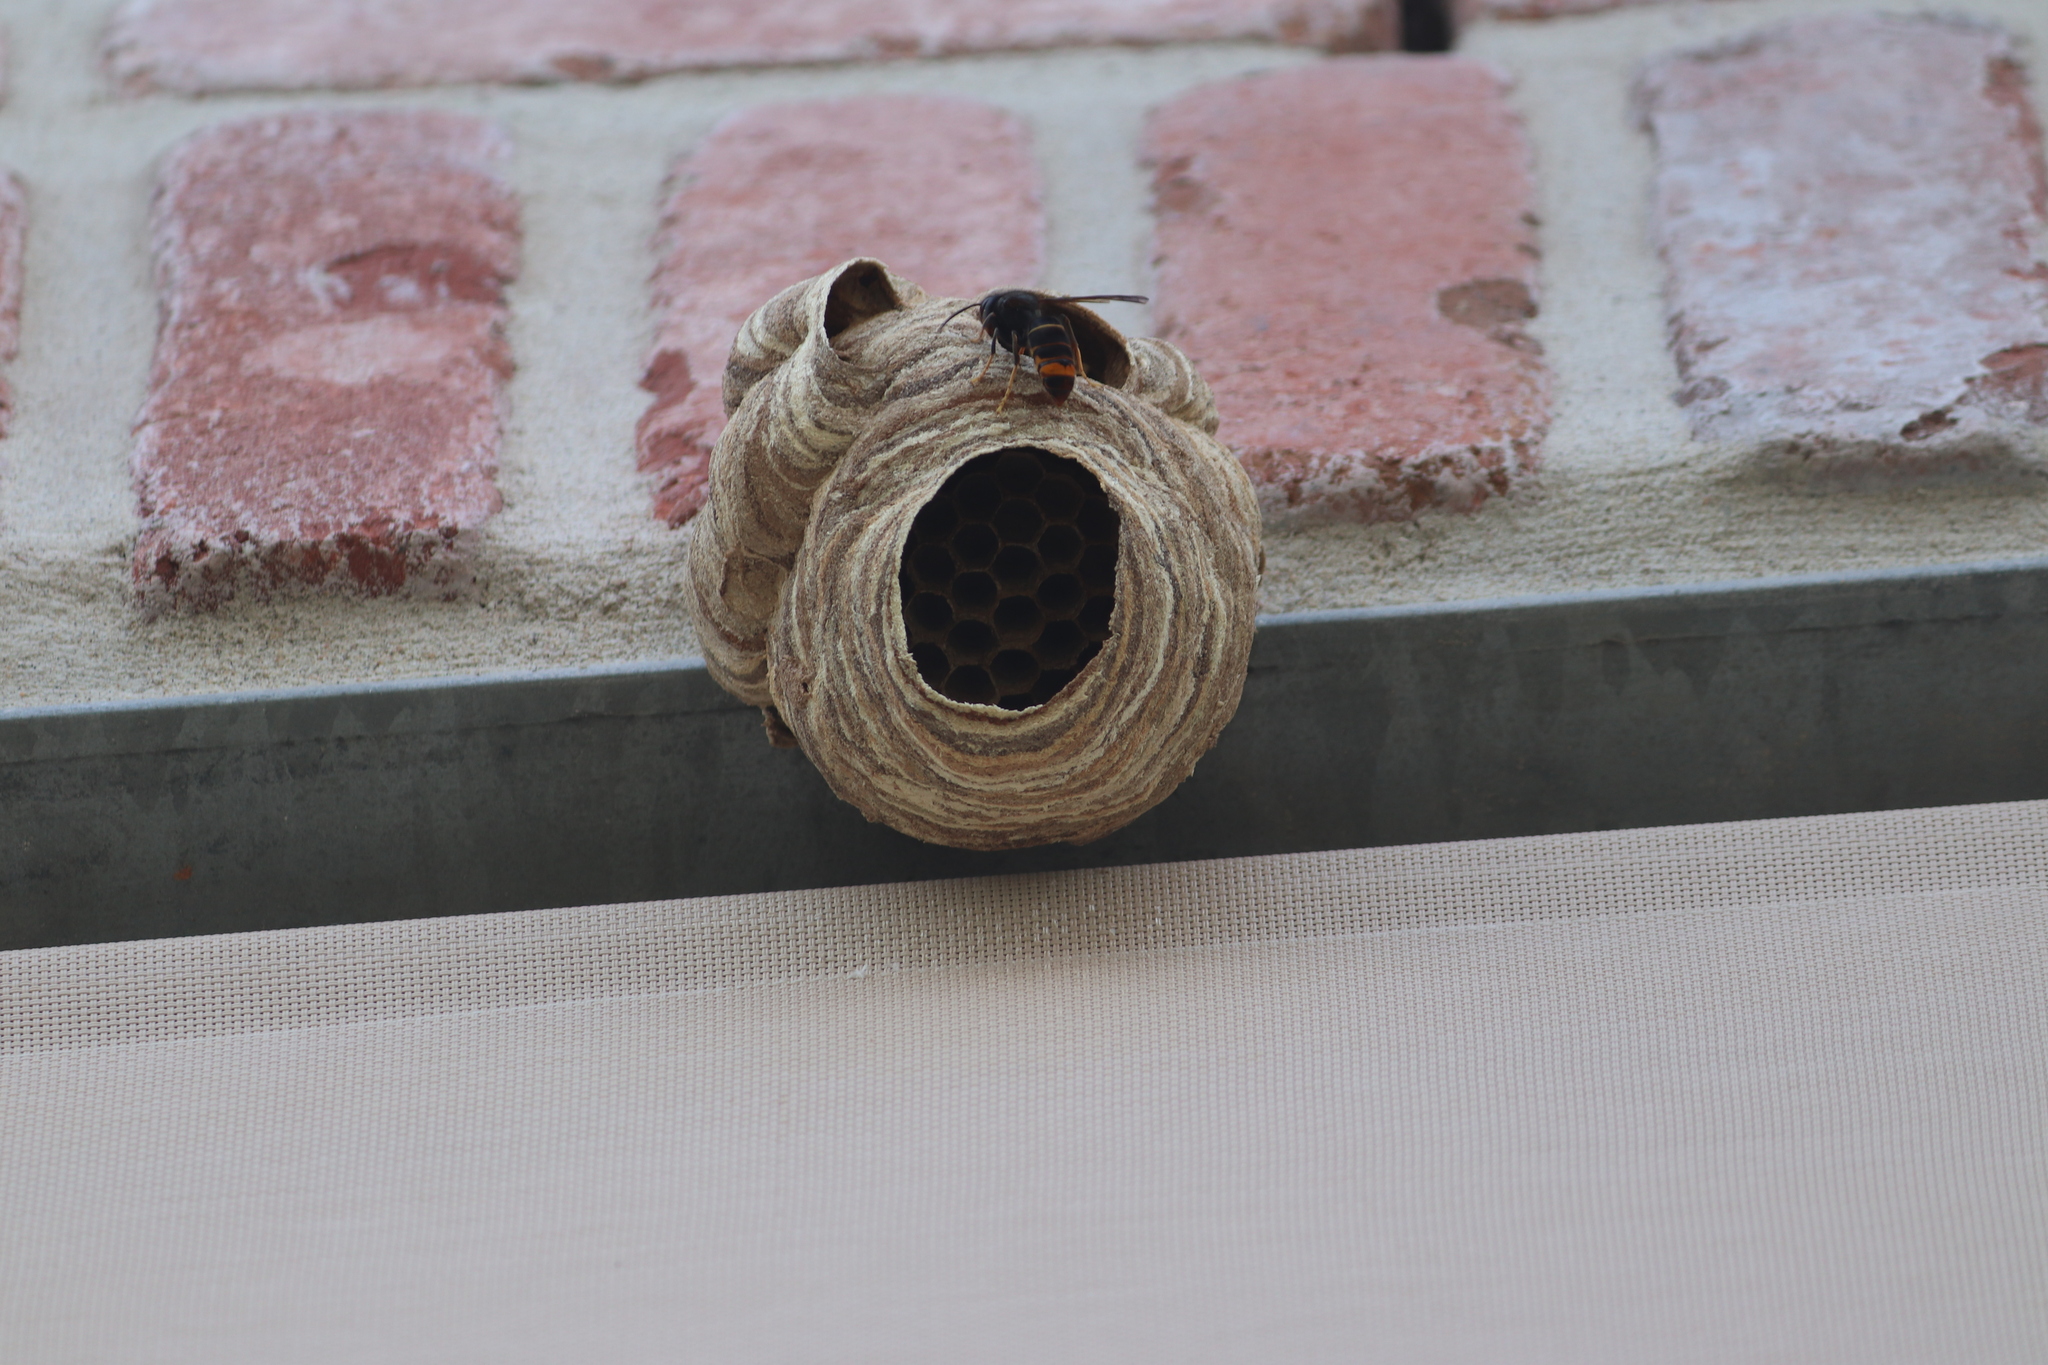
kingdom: Animalia
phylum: Arthropoda
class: Insecta
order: Hymenoptera
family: Vespidae
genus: Vespa
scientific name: Vespa velutina
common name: Asian hornet
